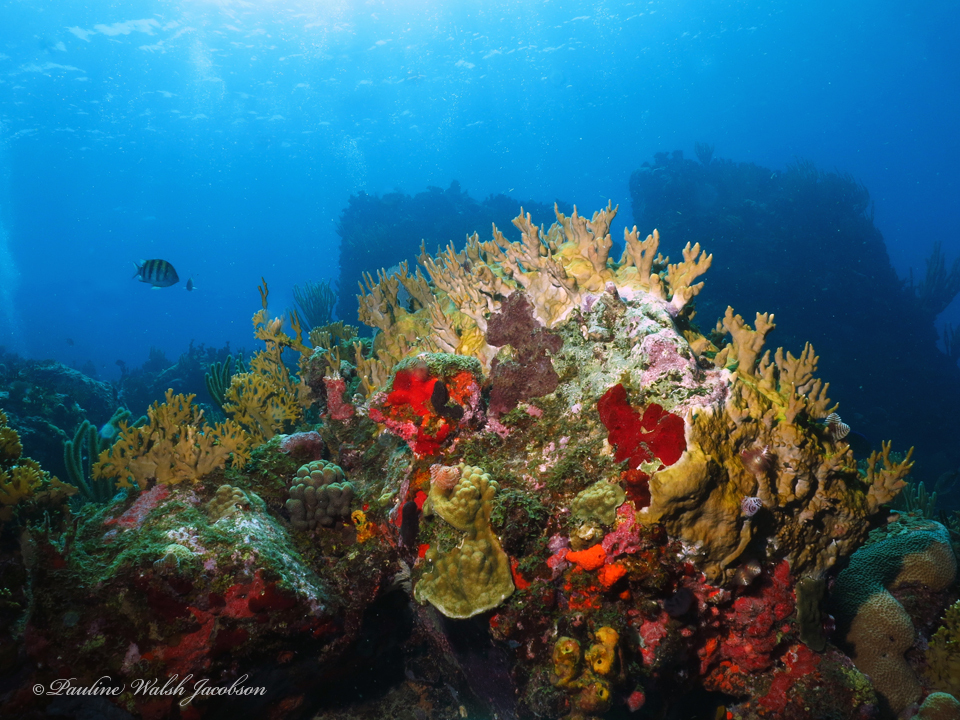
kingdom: Animalia
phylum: Chordata
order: Perciformes
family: Pomacentridae
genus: Abudefduf
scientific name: Abudefduf saxatilis
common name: Sergeant major
